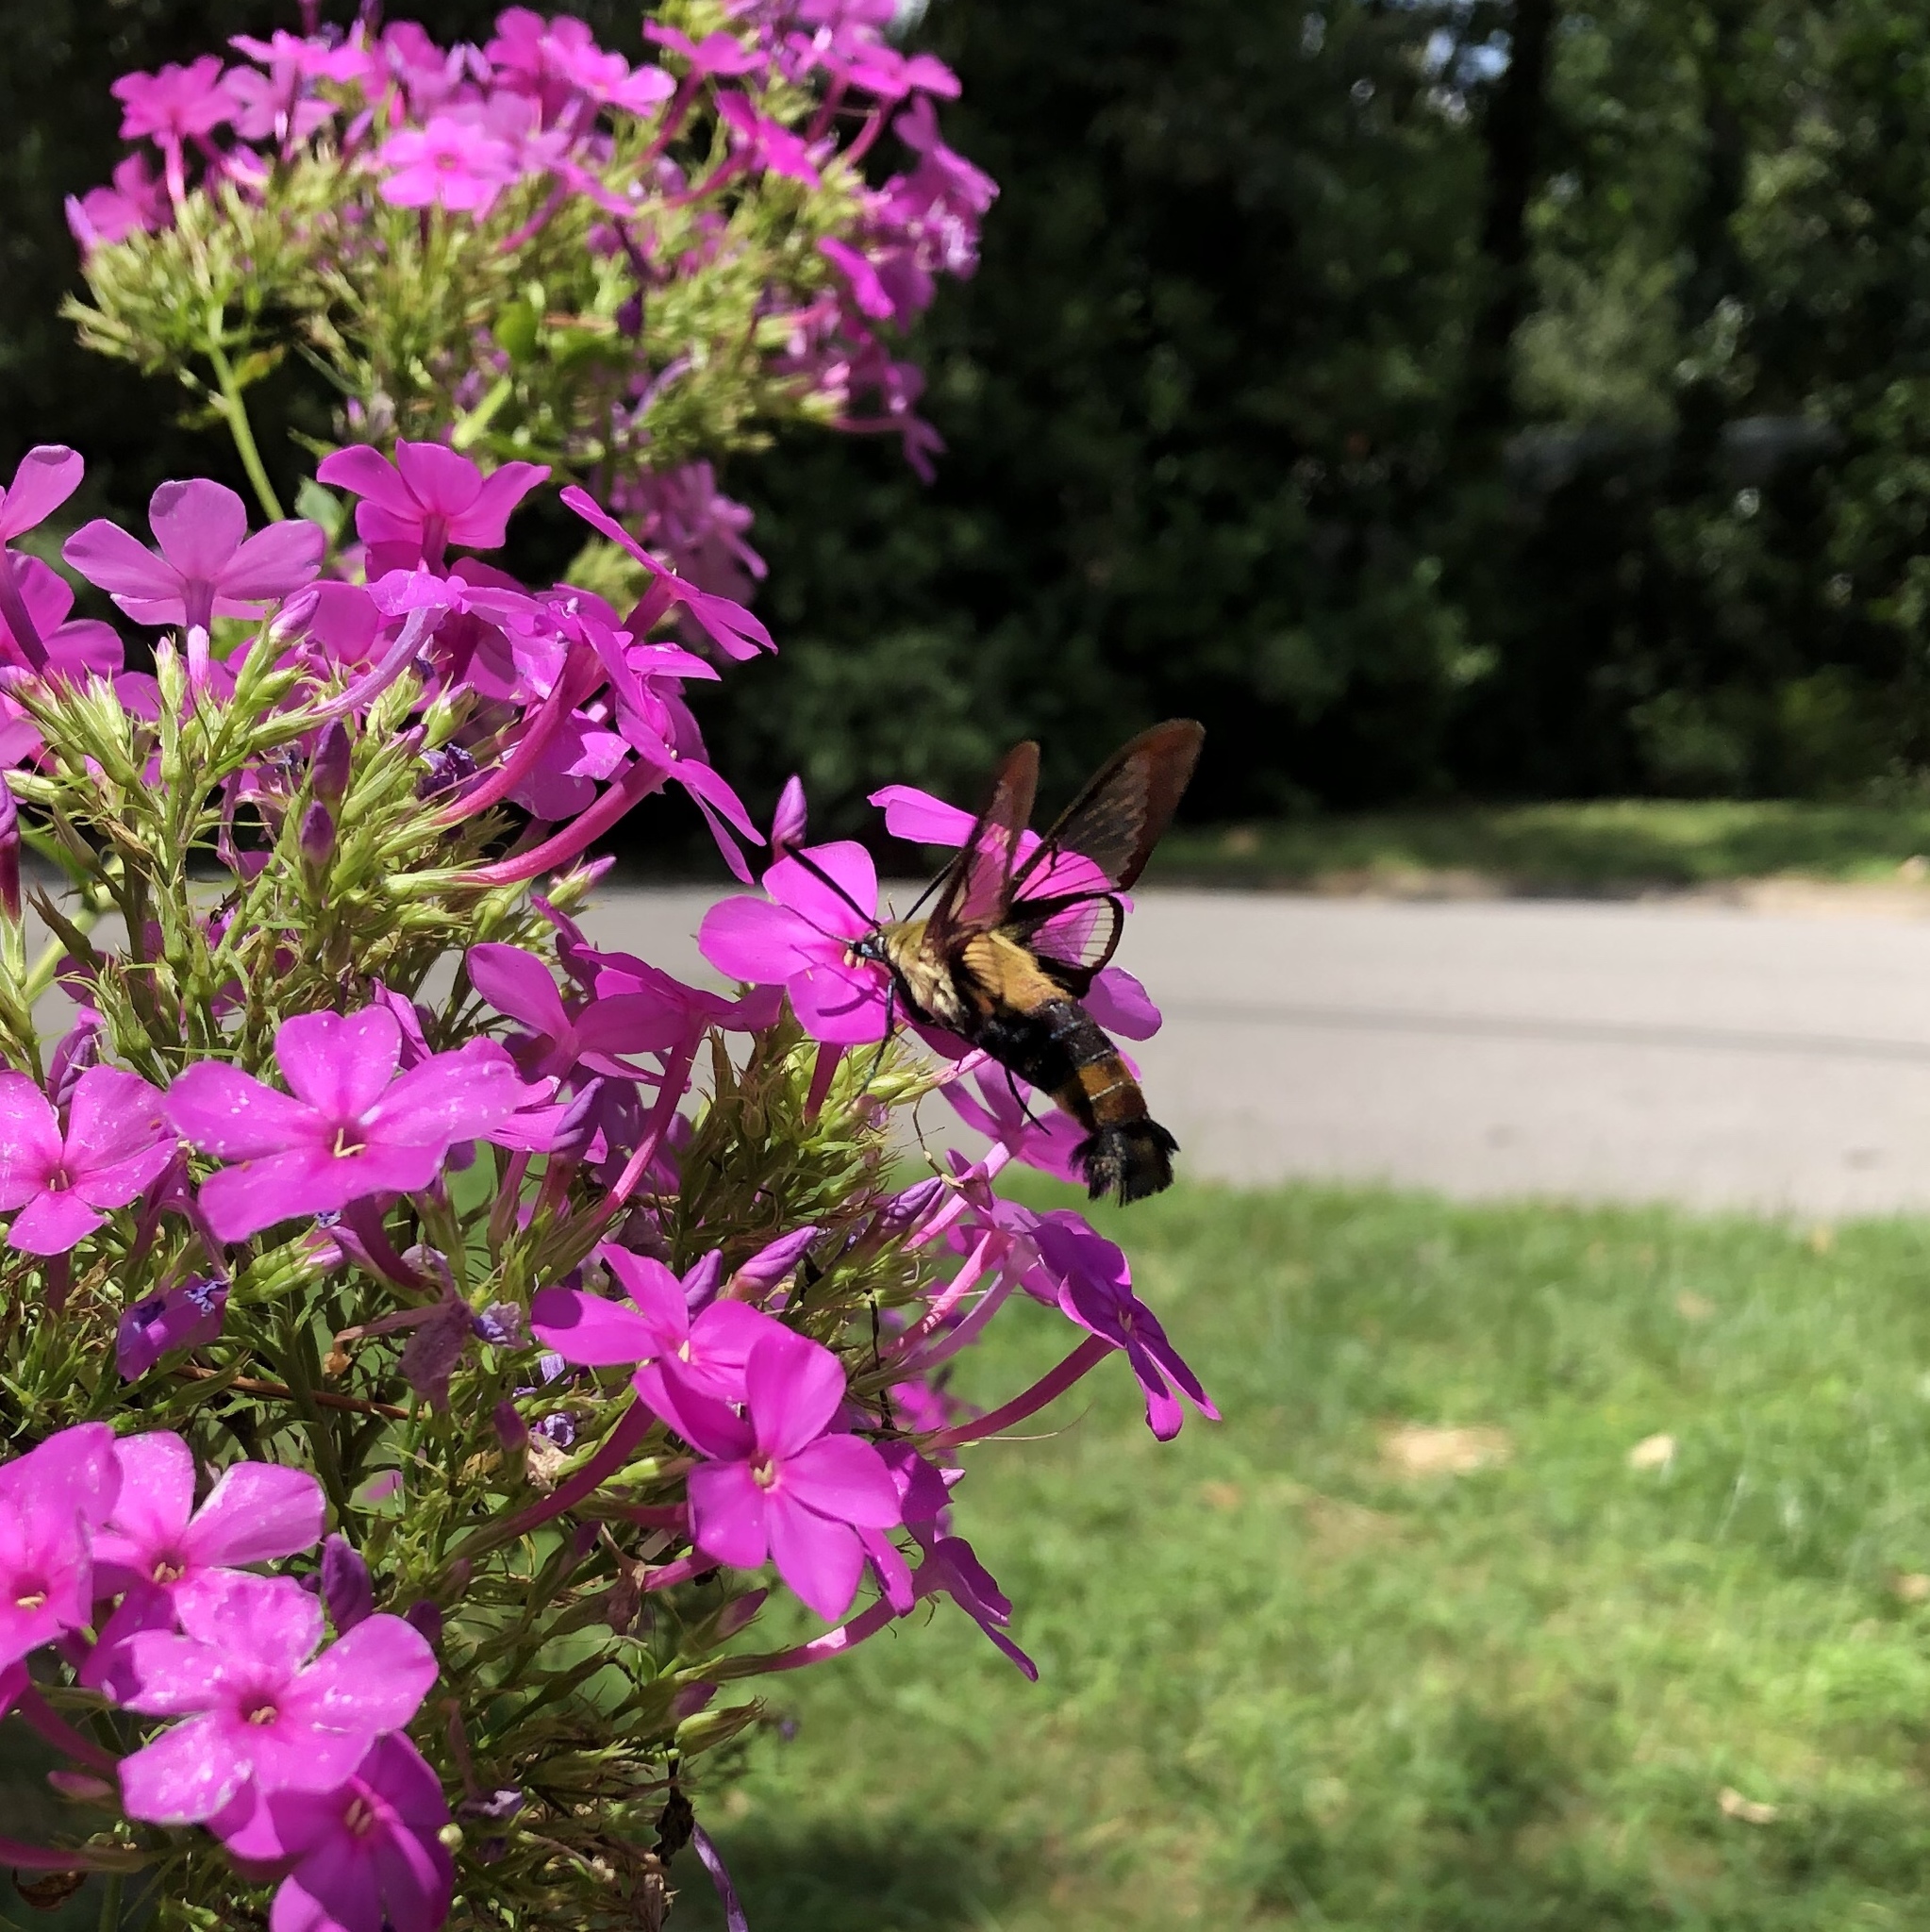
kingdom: Animalia
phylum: Arthropoda
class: Insecta
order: Lepidoptera
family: Sphingidae
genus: Hemaris
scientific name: Hemaris diffinis
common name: Bumblebee moth
